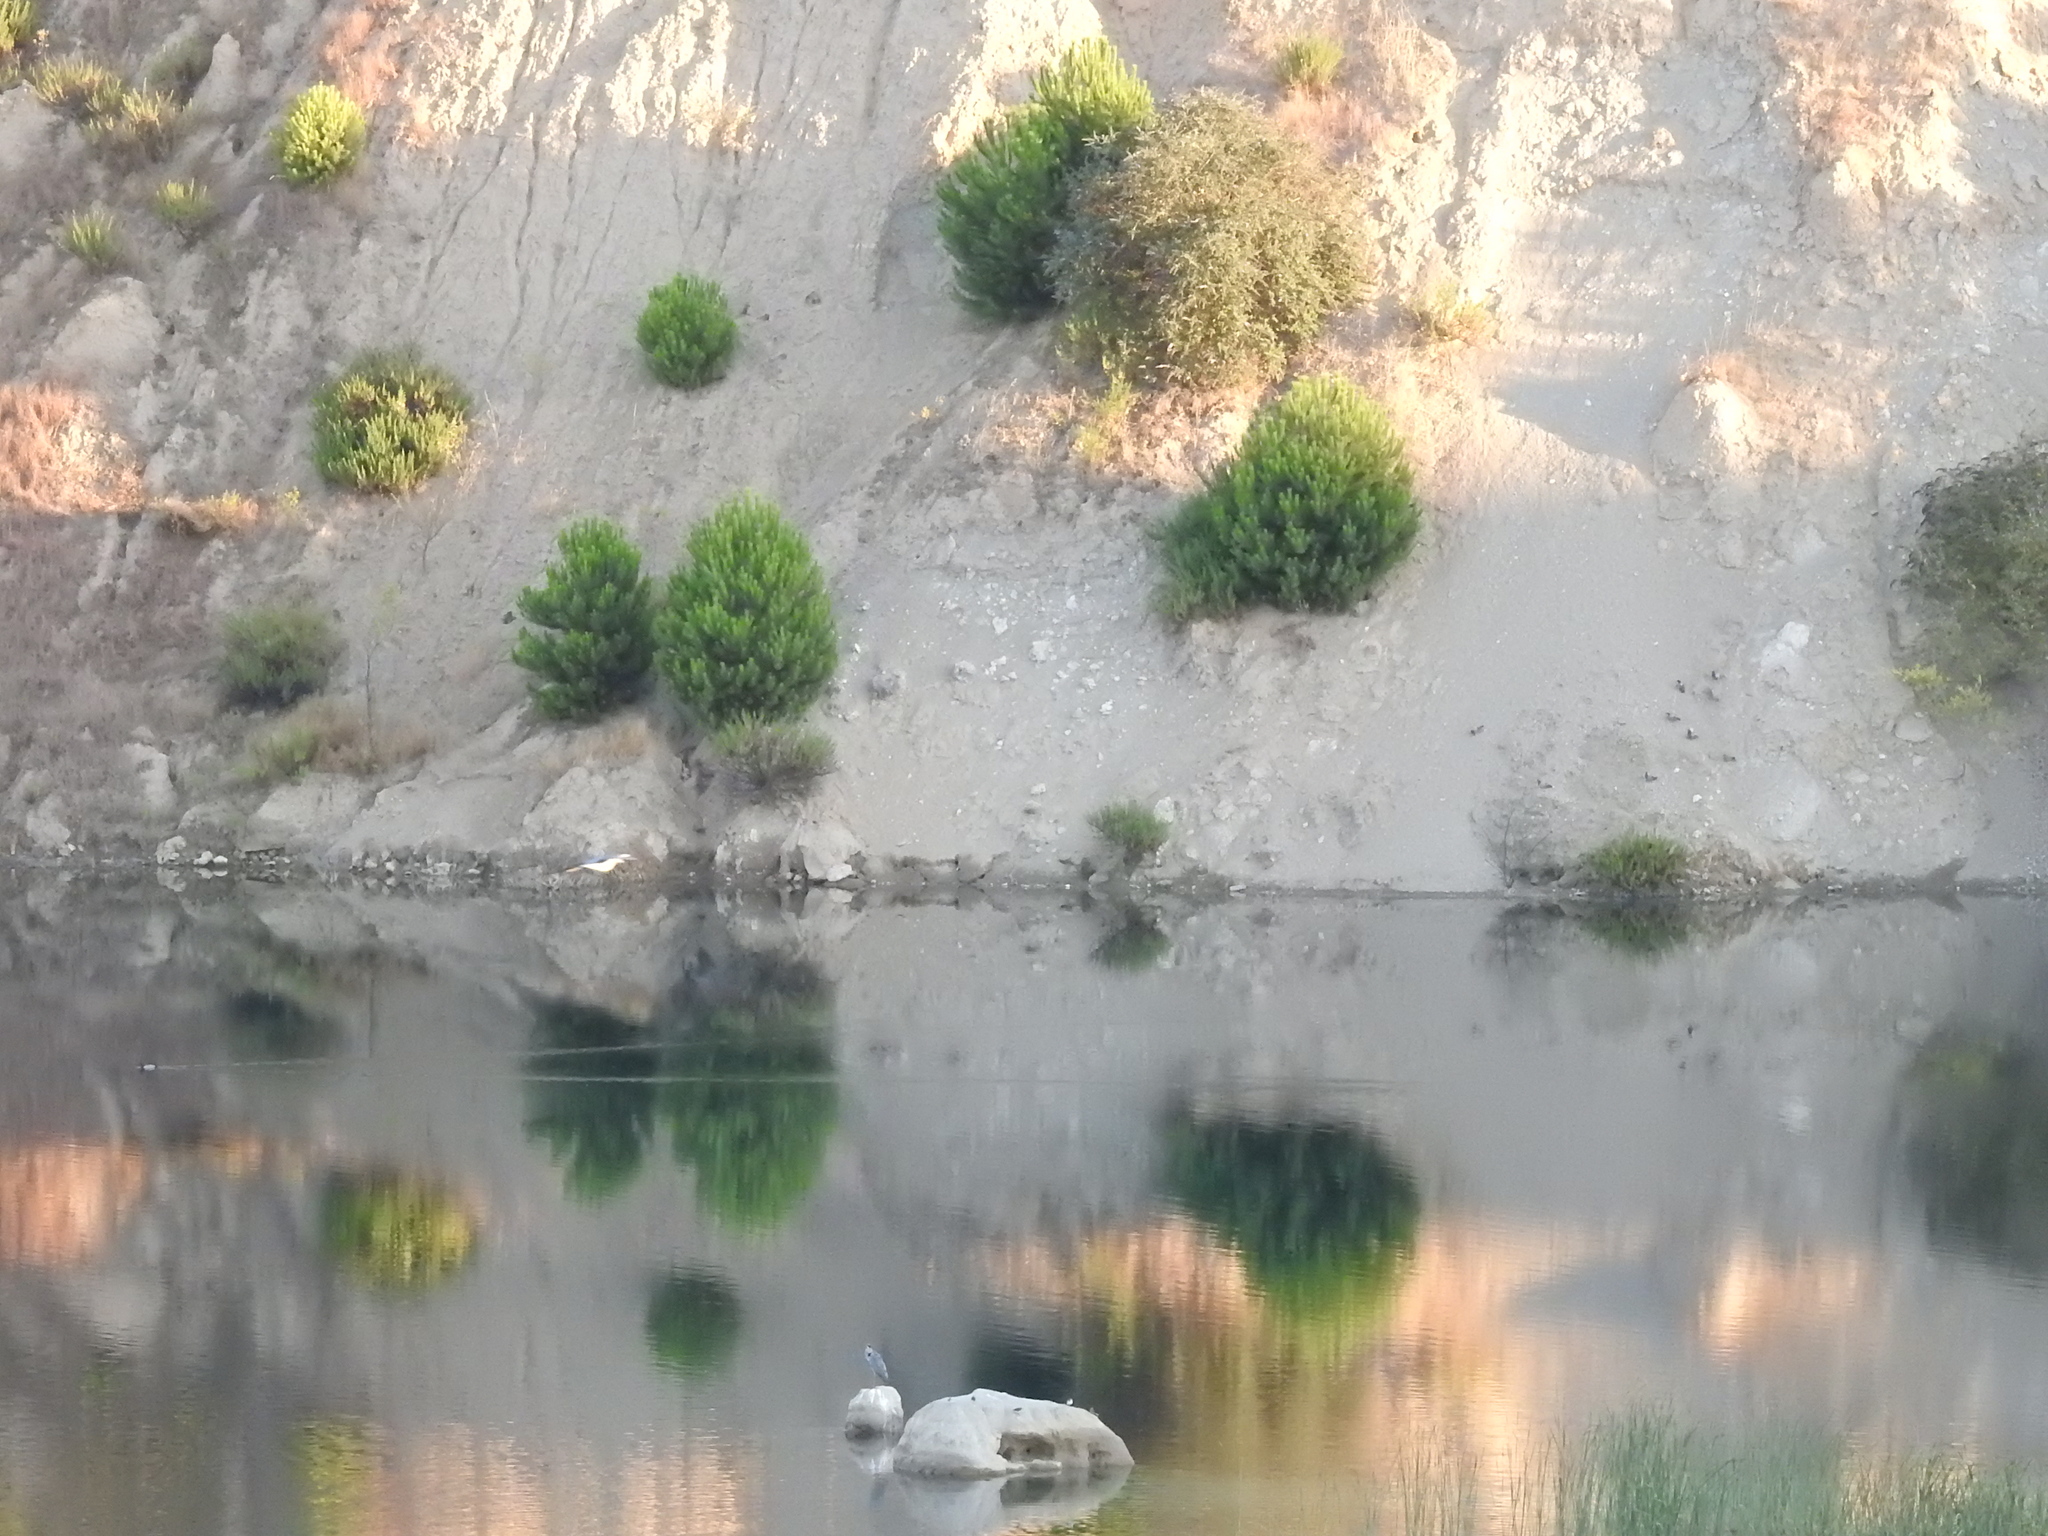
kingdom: Animalia
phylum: Chordata
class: Aves
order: Pelecaniformes
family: Ardeidae
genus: Ardea
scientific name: Ardea cinerea
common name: Grey heron
